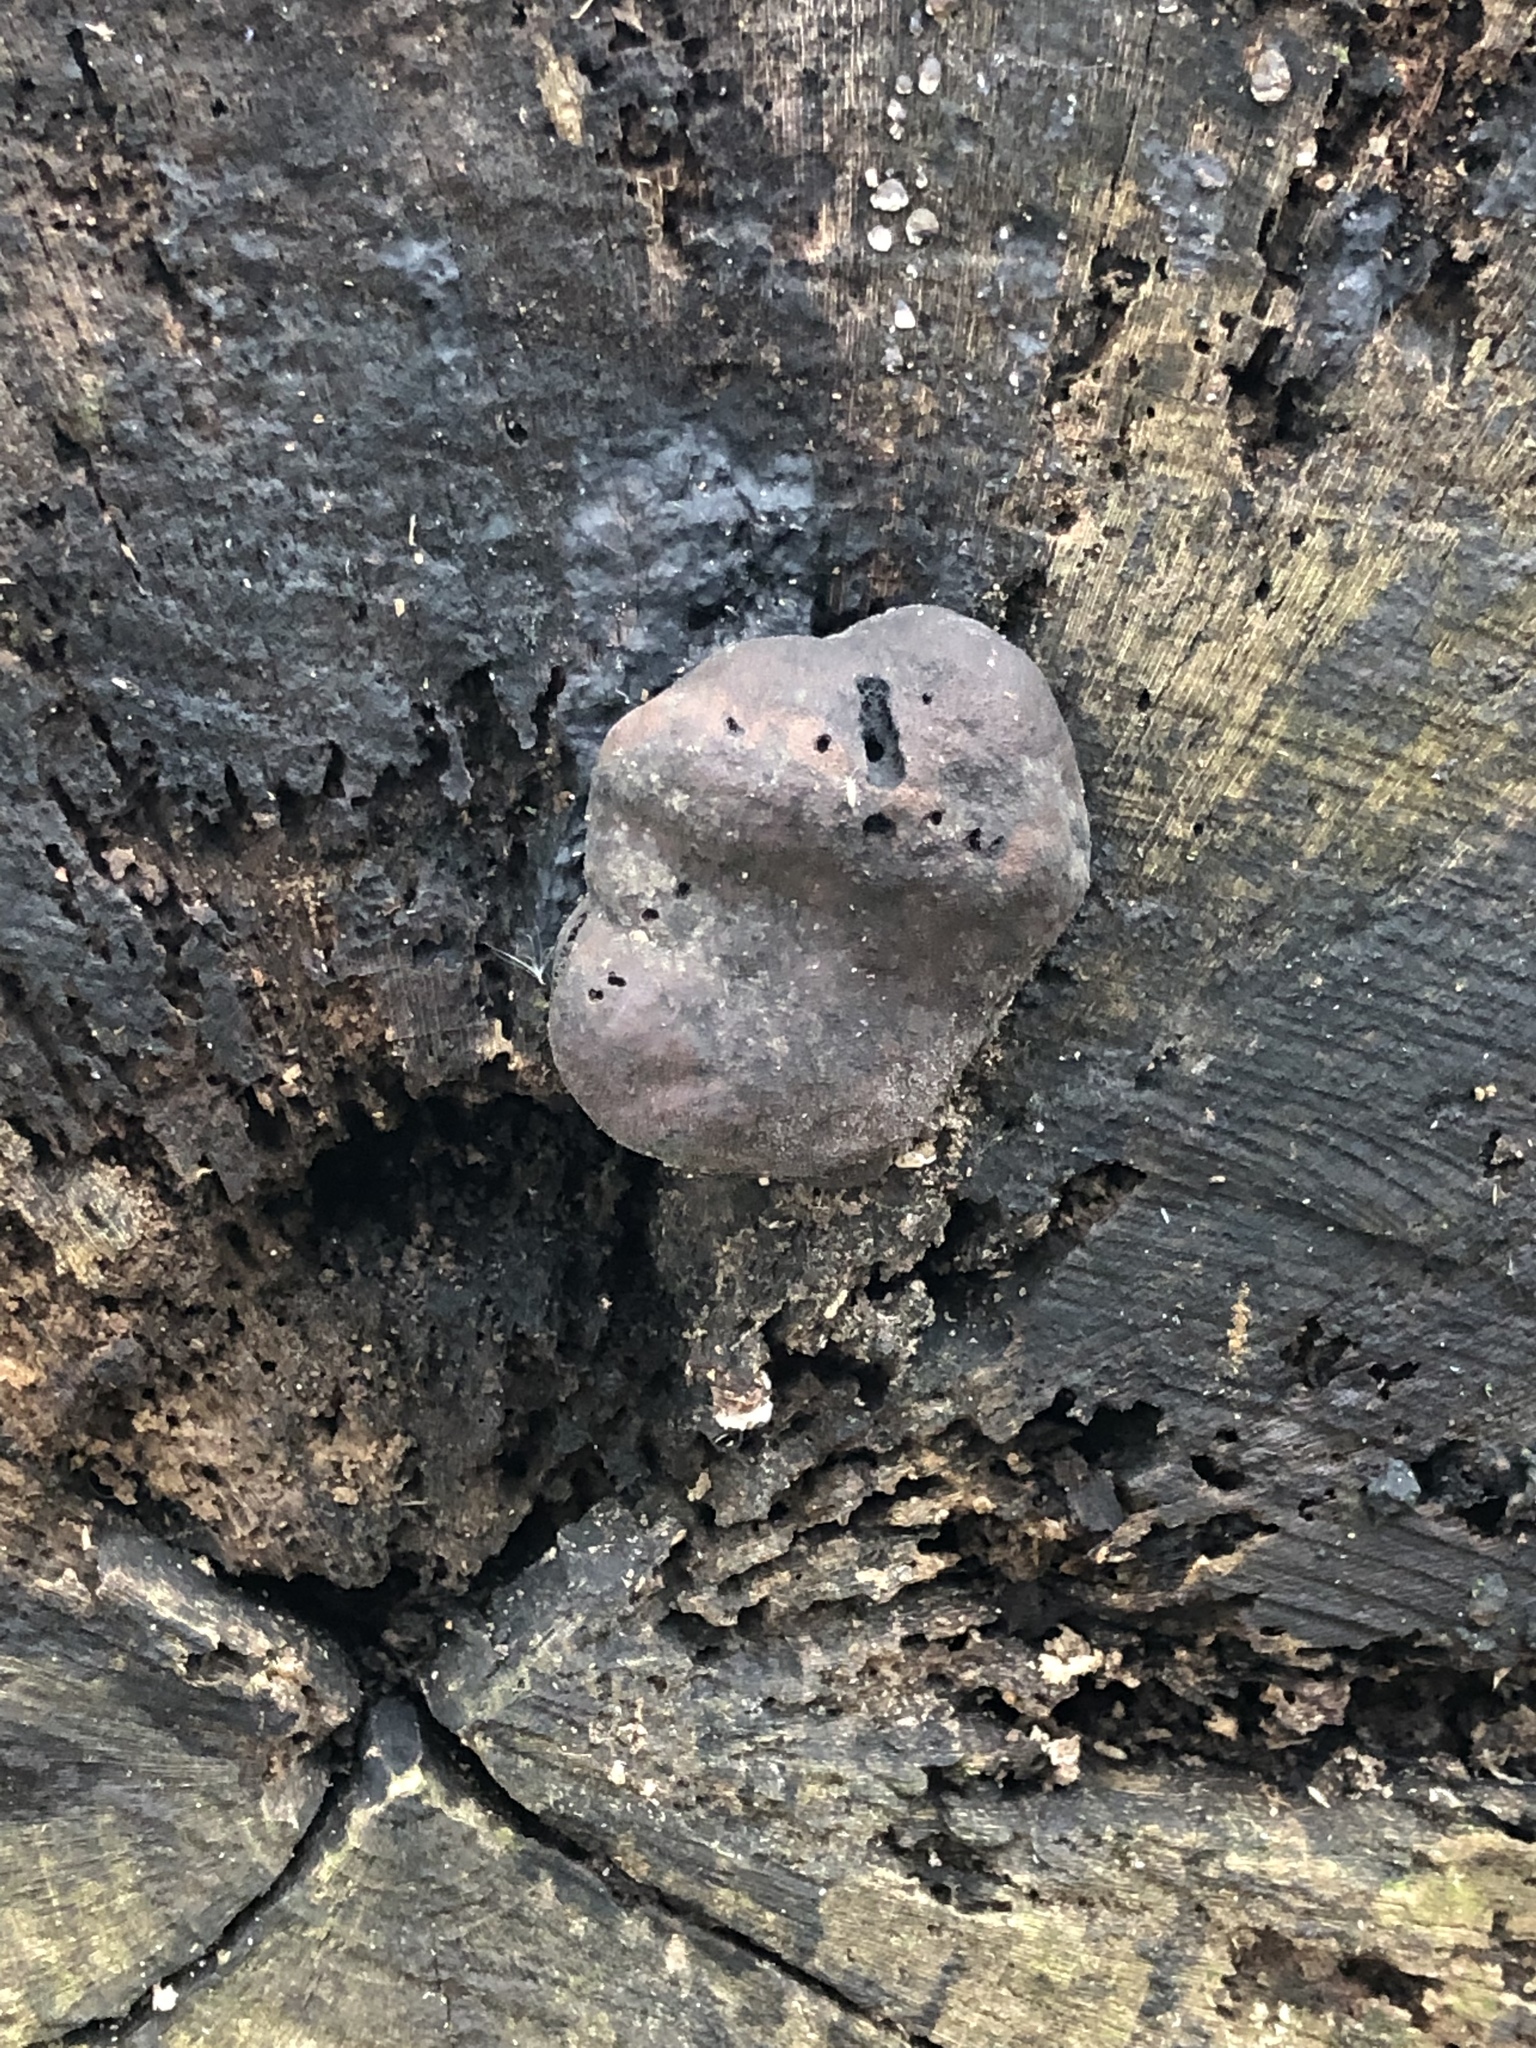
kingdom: Fungi
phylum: Ascomycota
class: Sordariomycetes
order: Xylariales
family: Hypoxylaceae
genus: Daldinia
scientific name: Daldinia concentrica
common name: Cramp balls
